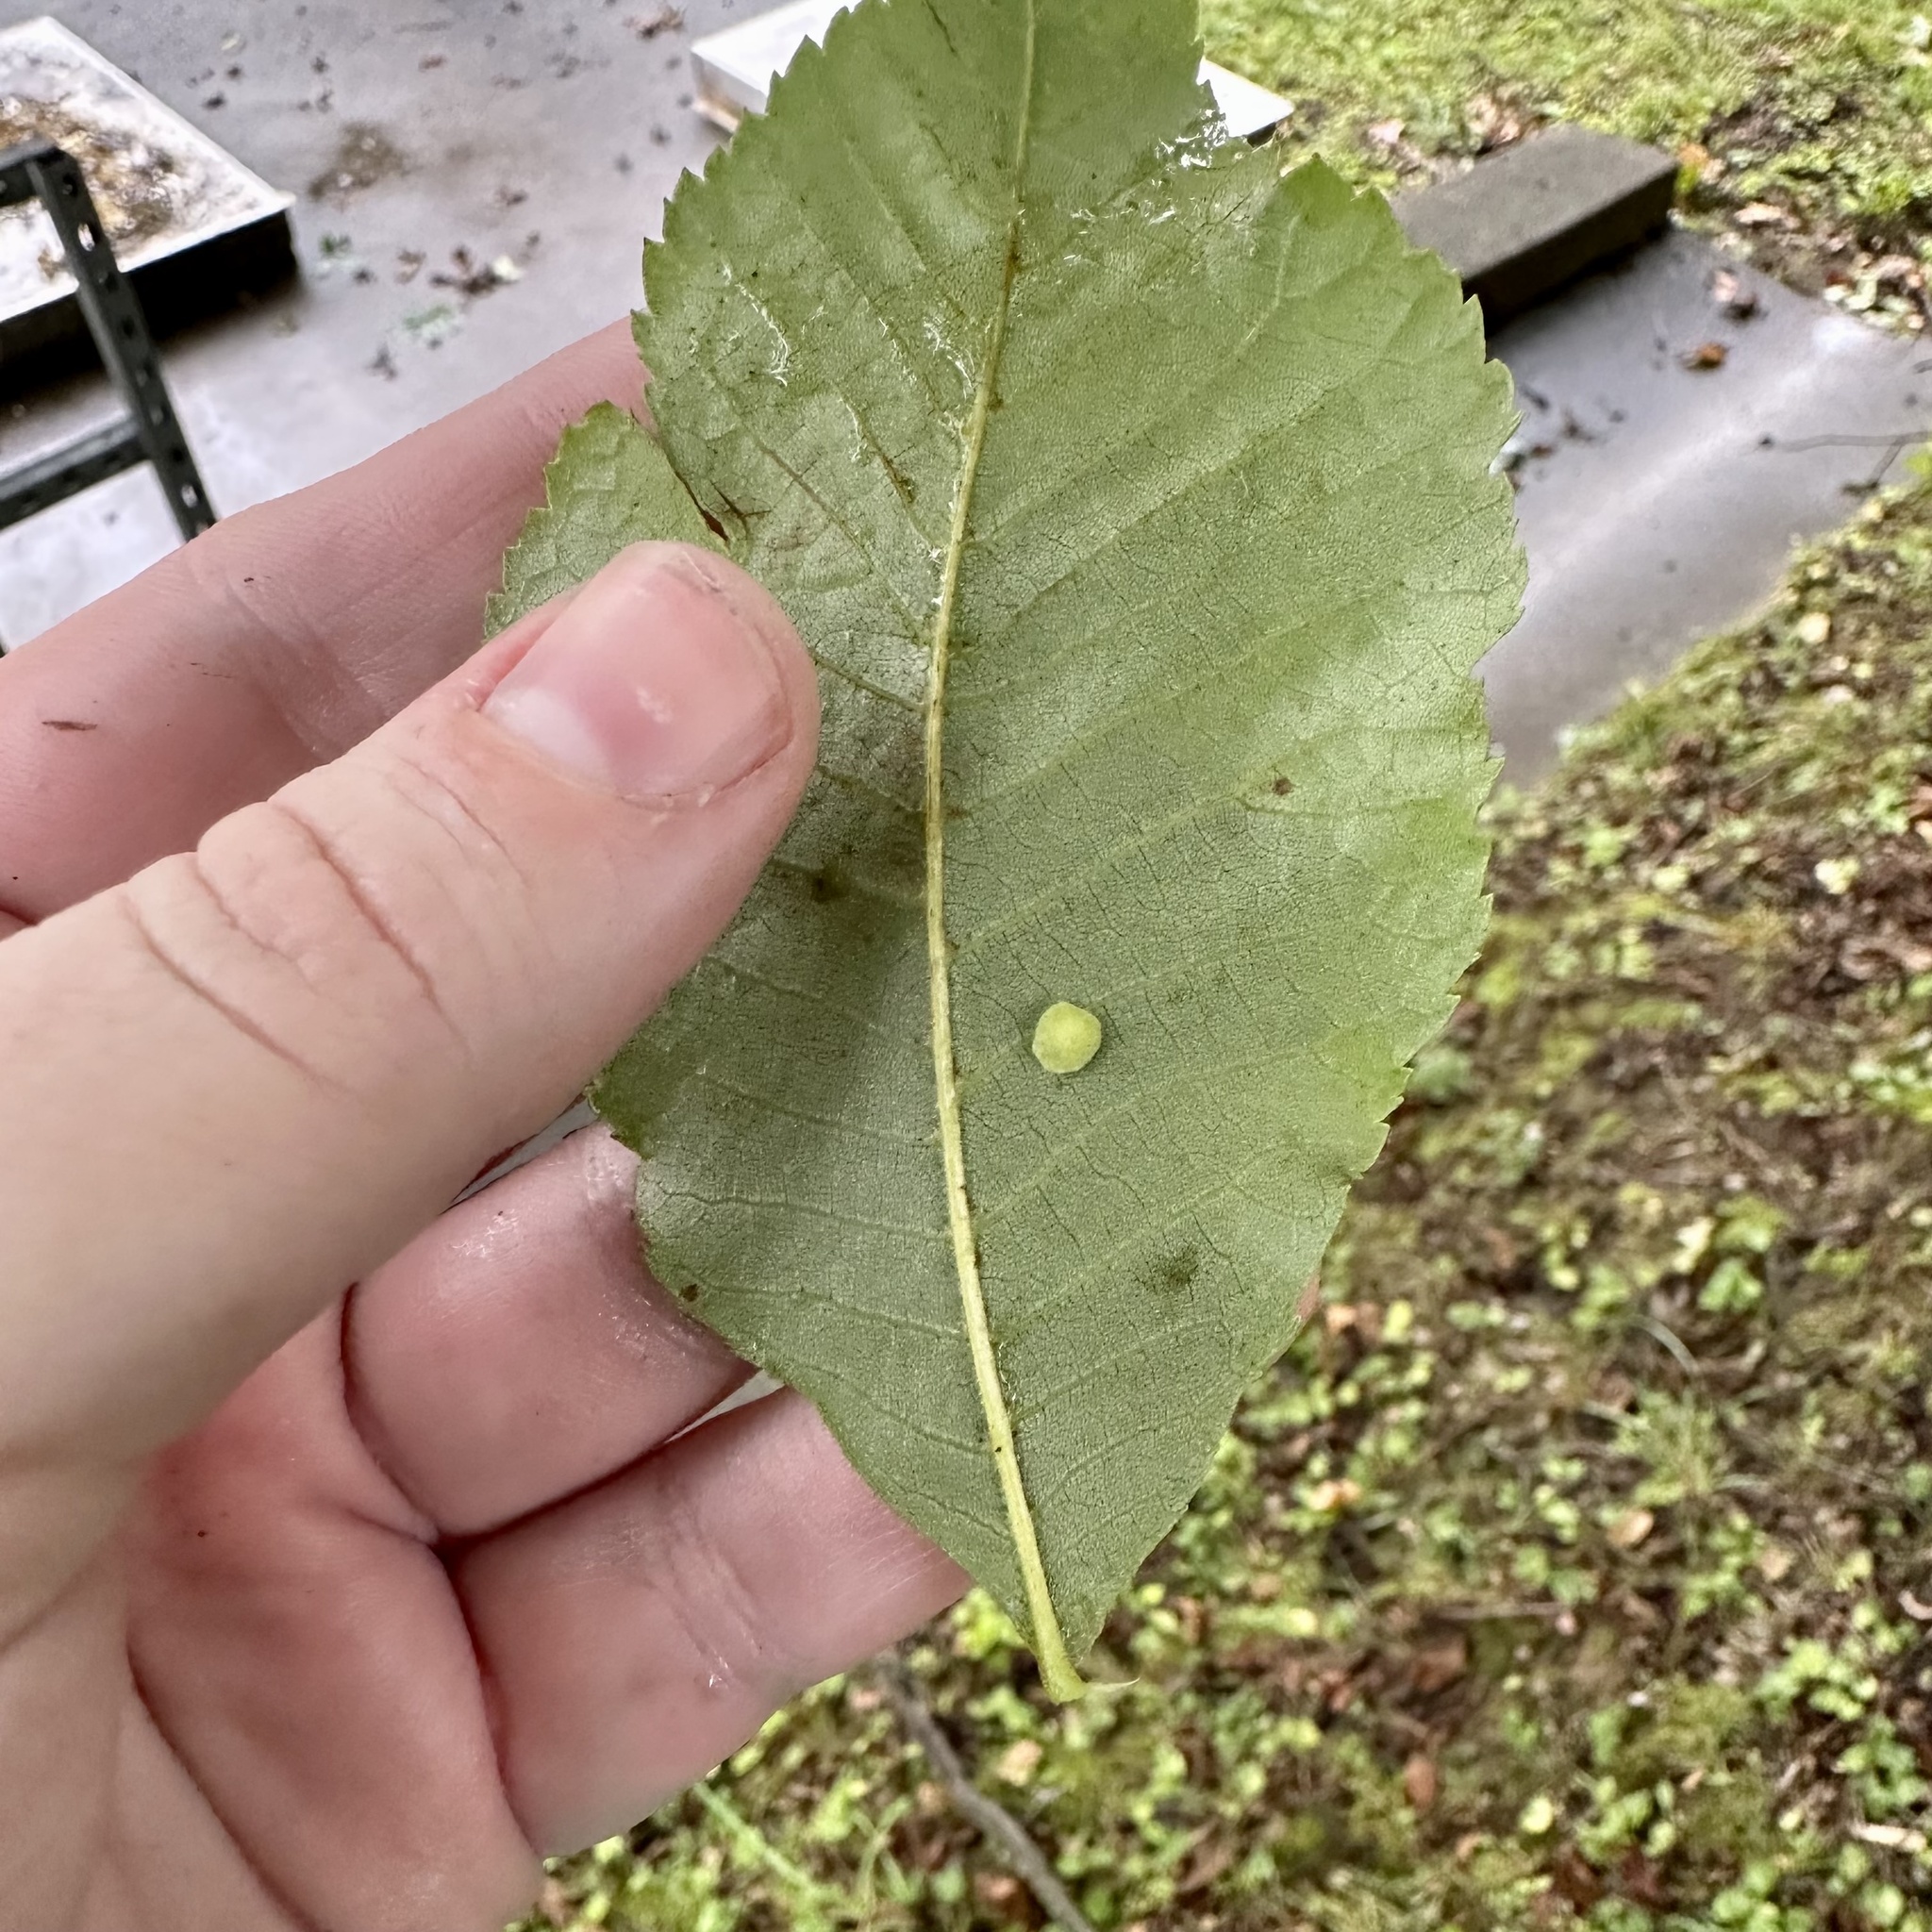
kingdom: Animalia
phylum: Arthropoda
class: Insecta
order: Diptera
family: Cecidomyiidae
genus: Caryomyia
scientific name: Caryomyia sanguinolenta
